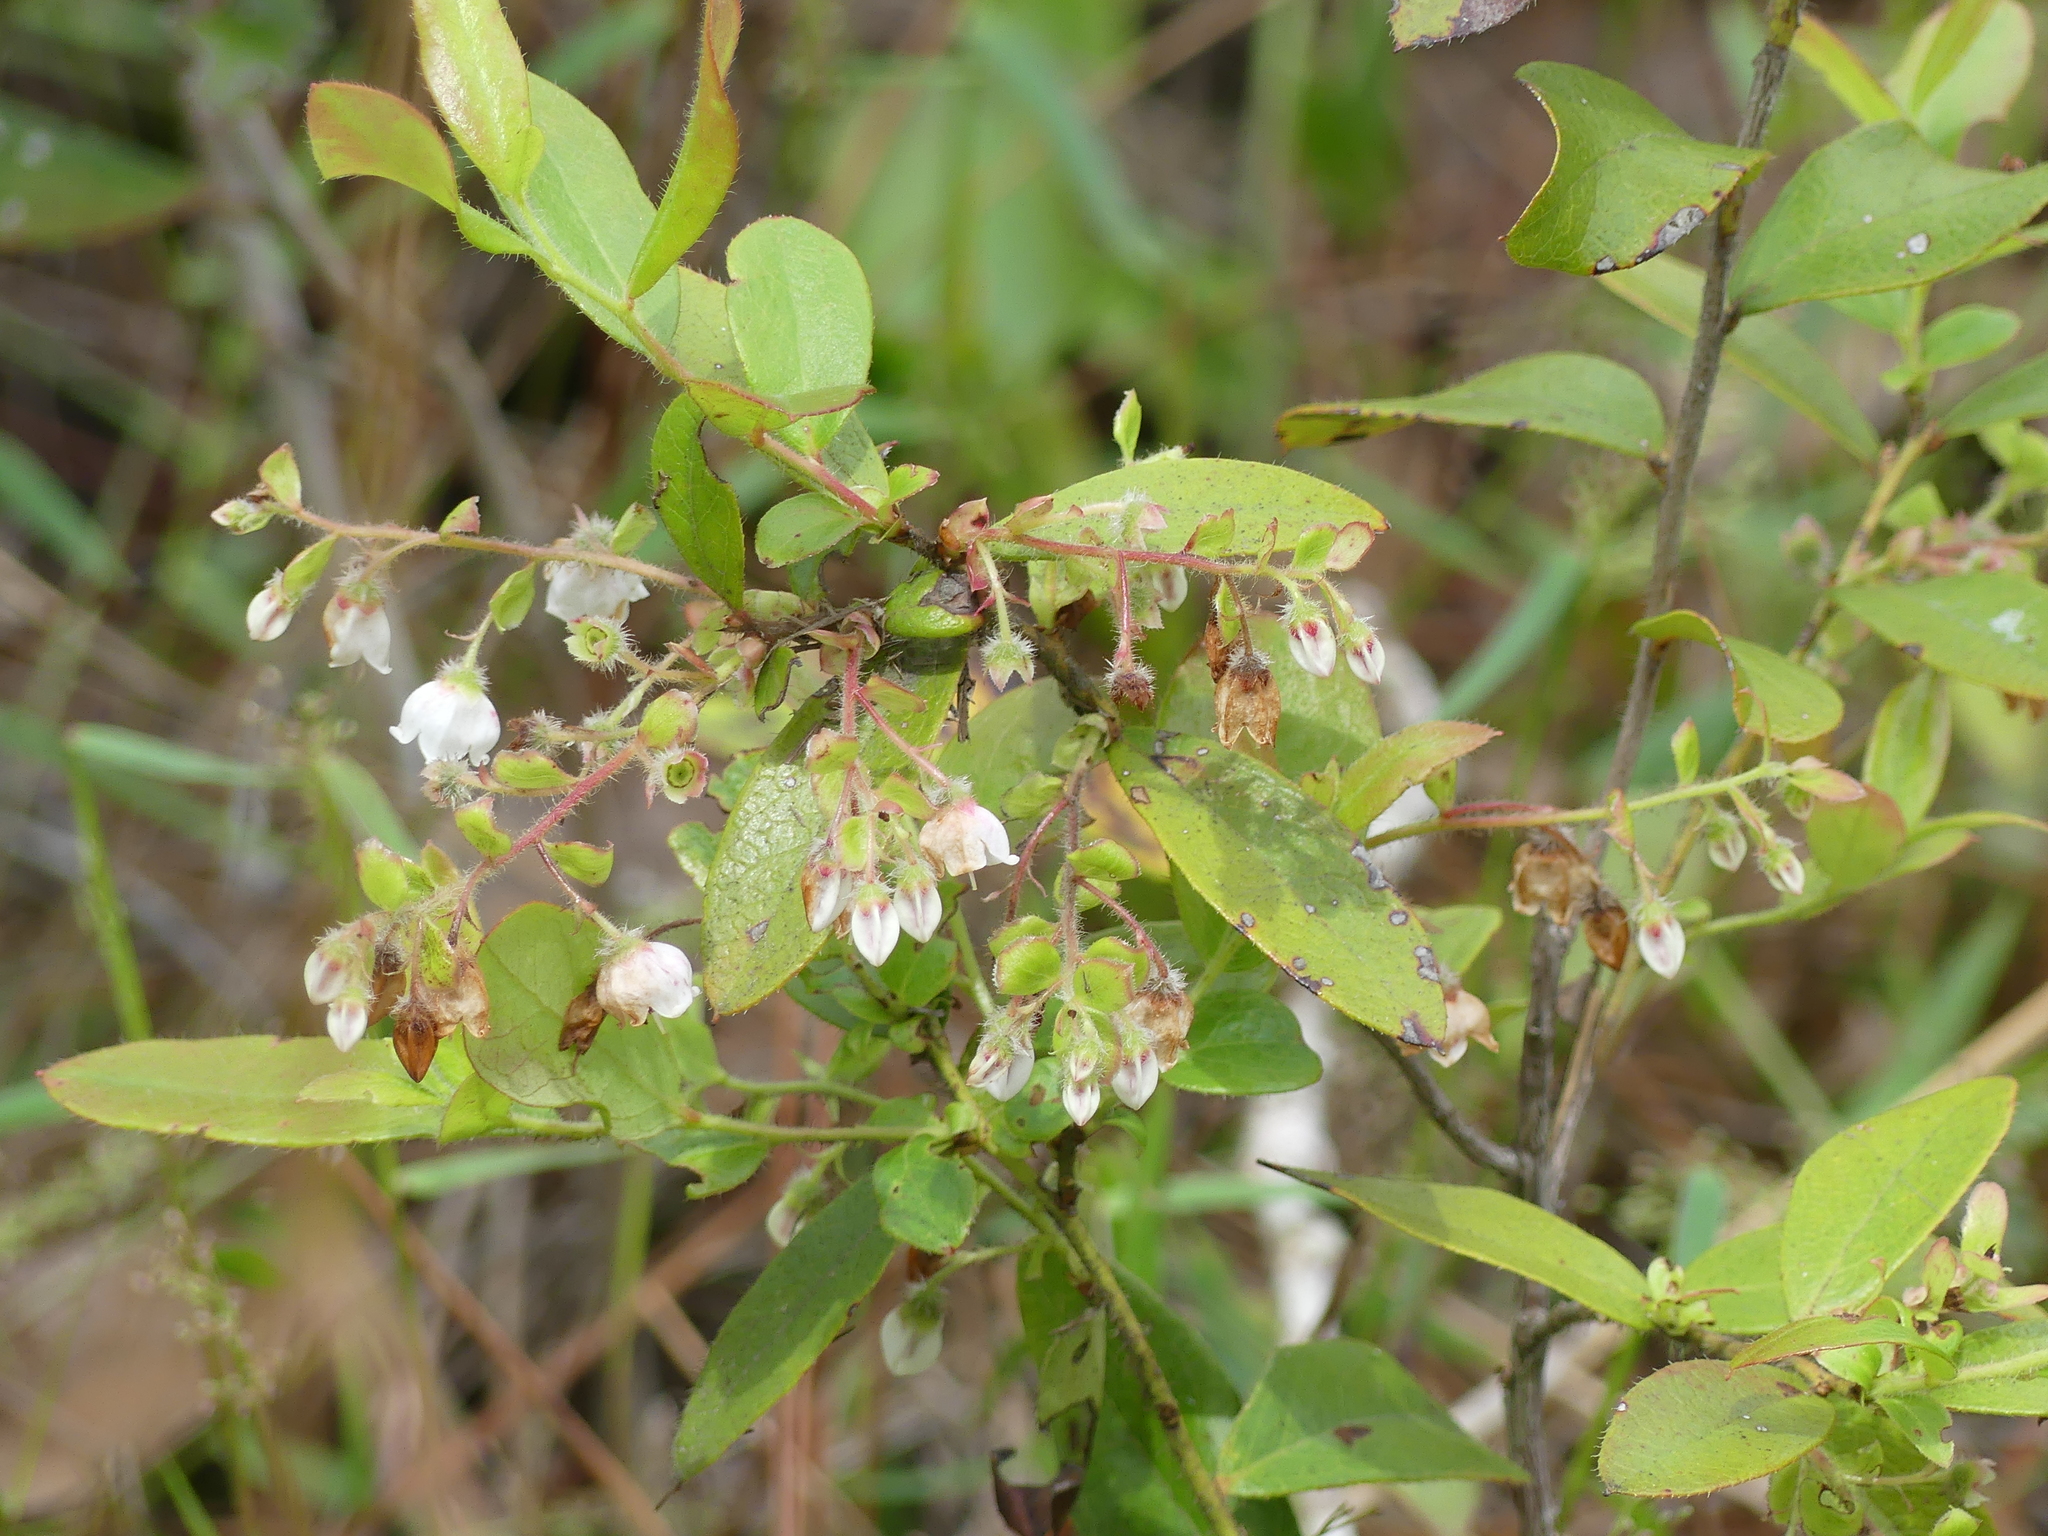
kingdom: Plantae
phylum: Tracheophyta
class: Magnoliopsida
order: Ericales
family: Ericaceae
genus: Gaylussacia
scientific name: Gaylussacia mosieri
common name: Hirsute huckleberry
